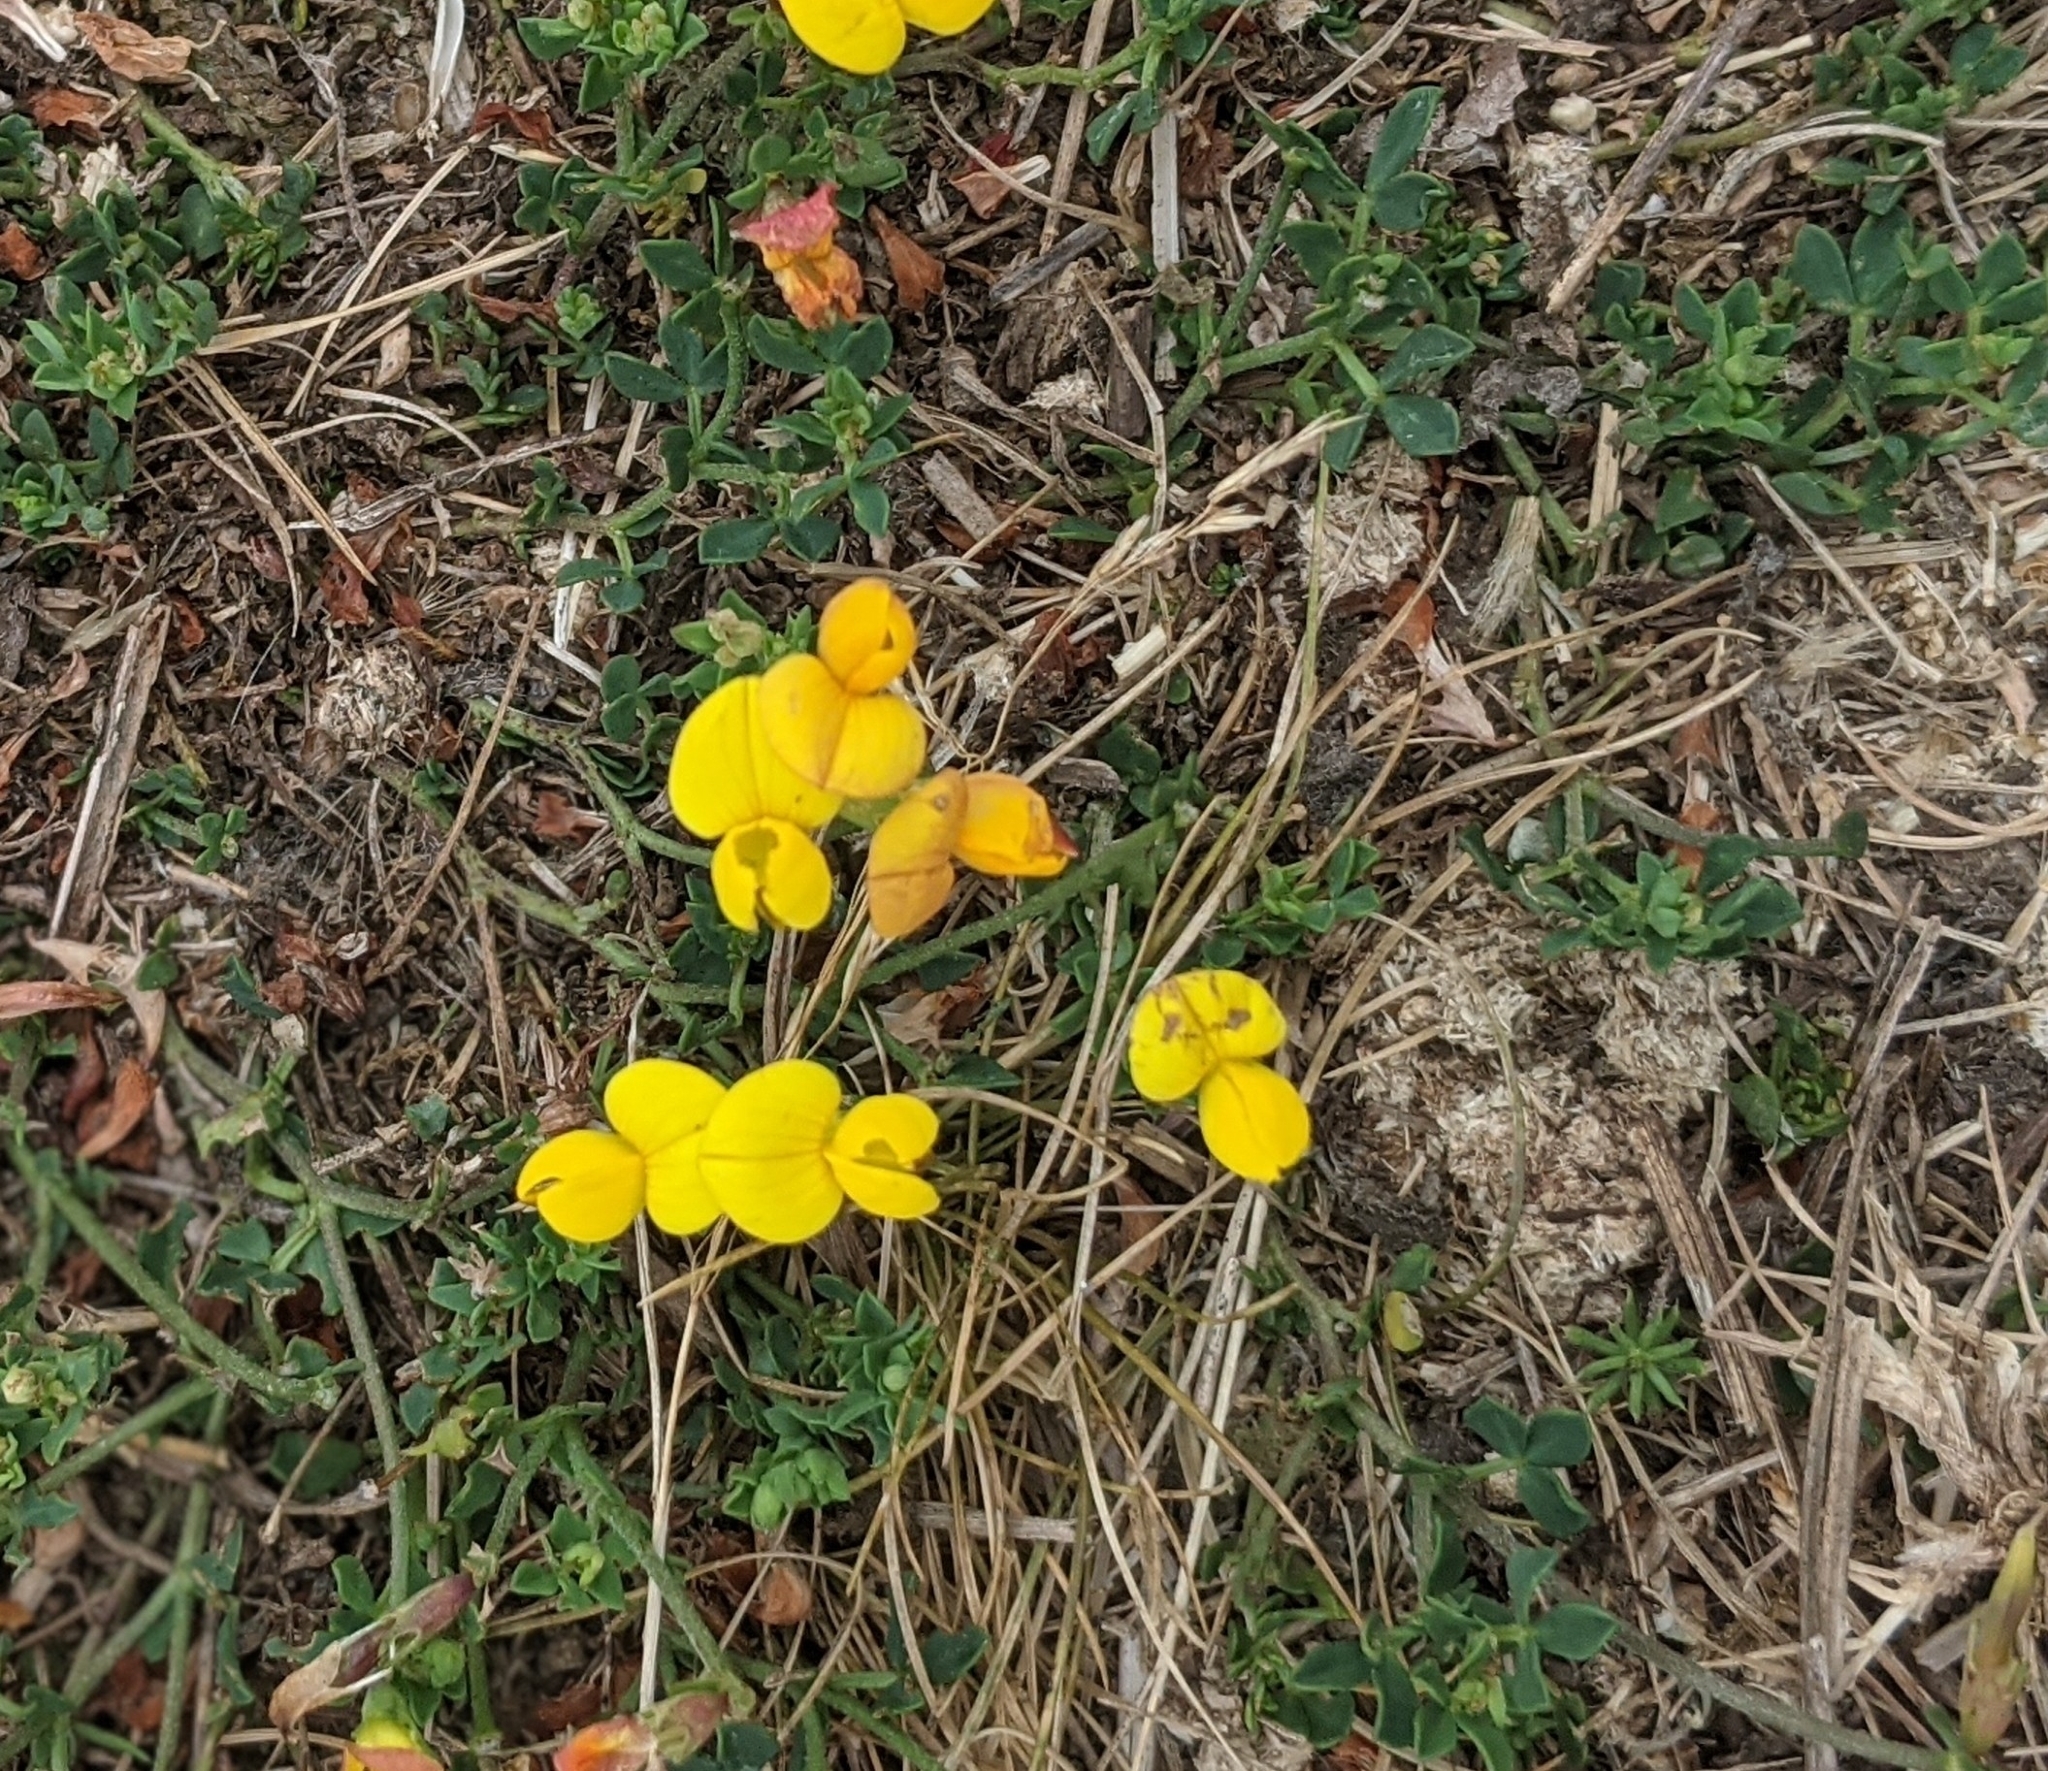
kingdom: Plantae
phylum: Tracheophyta
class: Magnoliopsida
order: Fabales
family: Fabaceae
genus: Lotus
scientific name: Lotus corniculatus
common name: Common bird's-foot-trefoil
